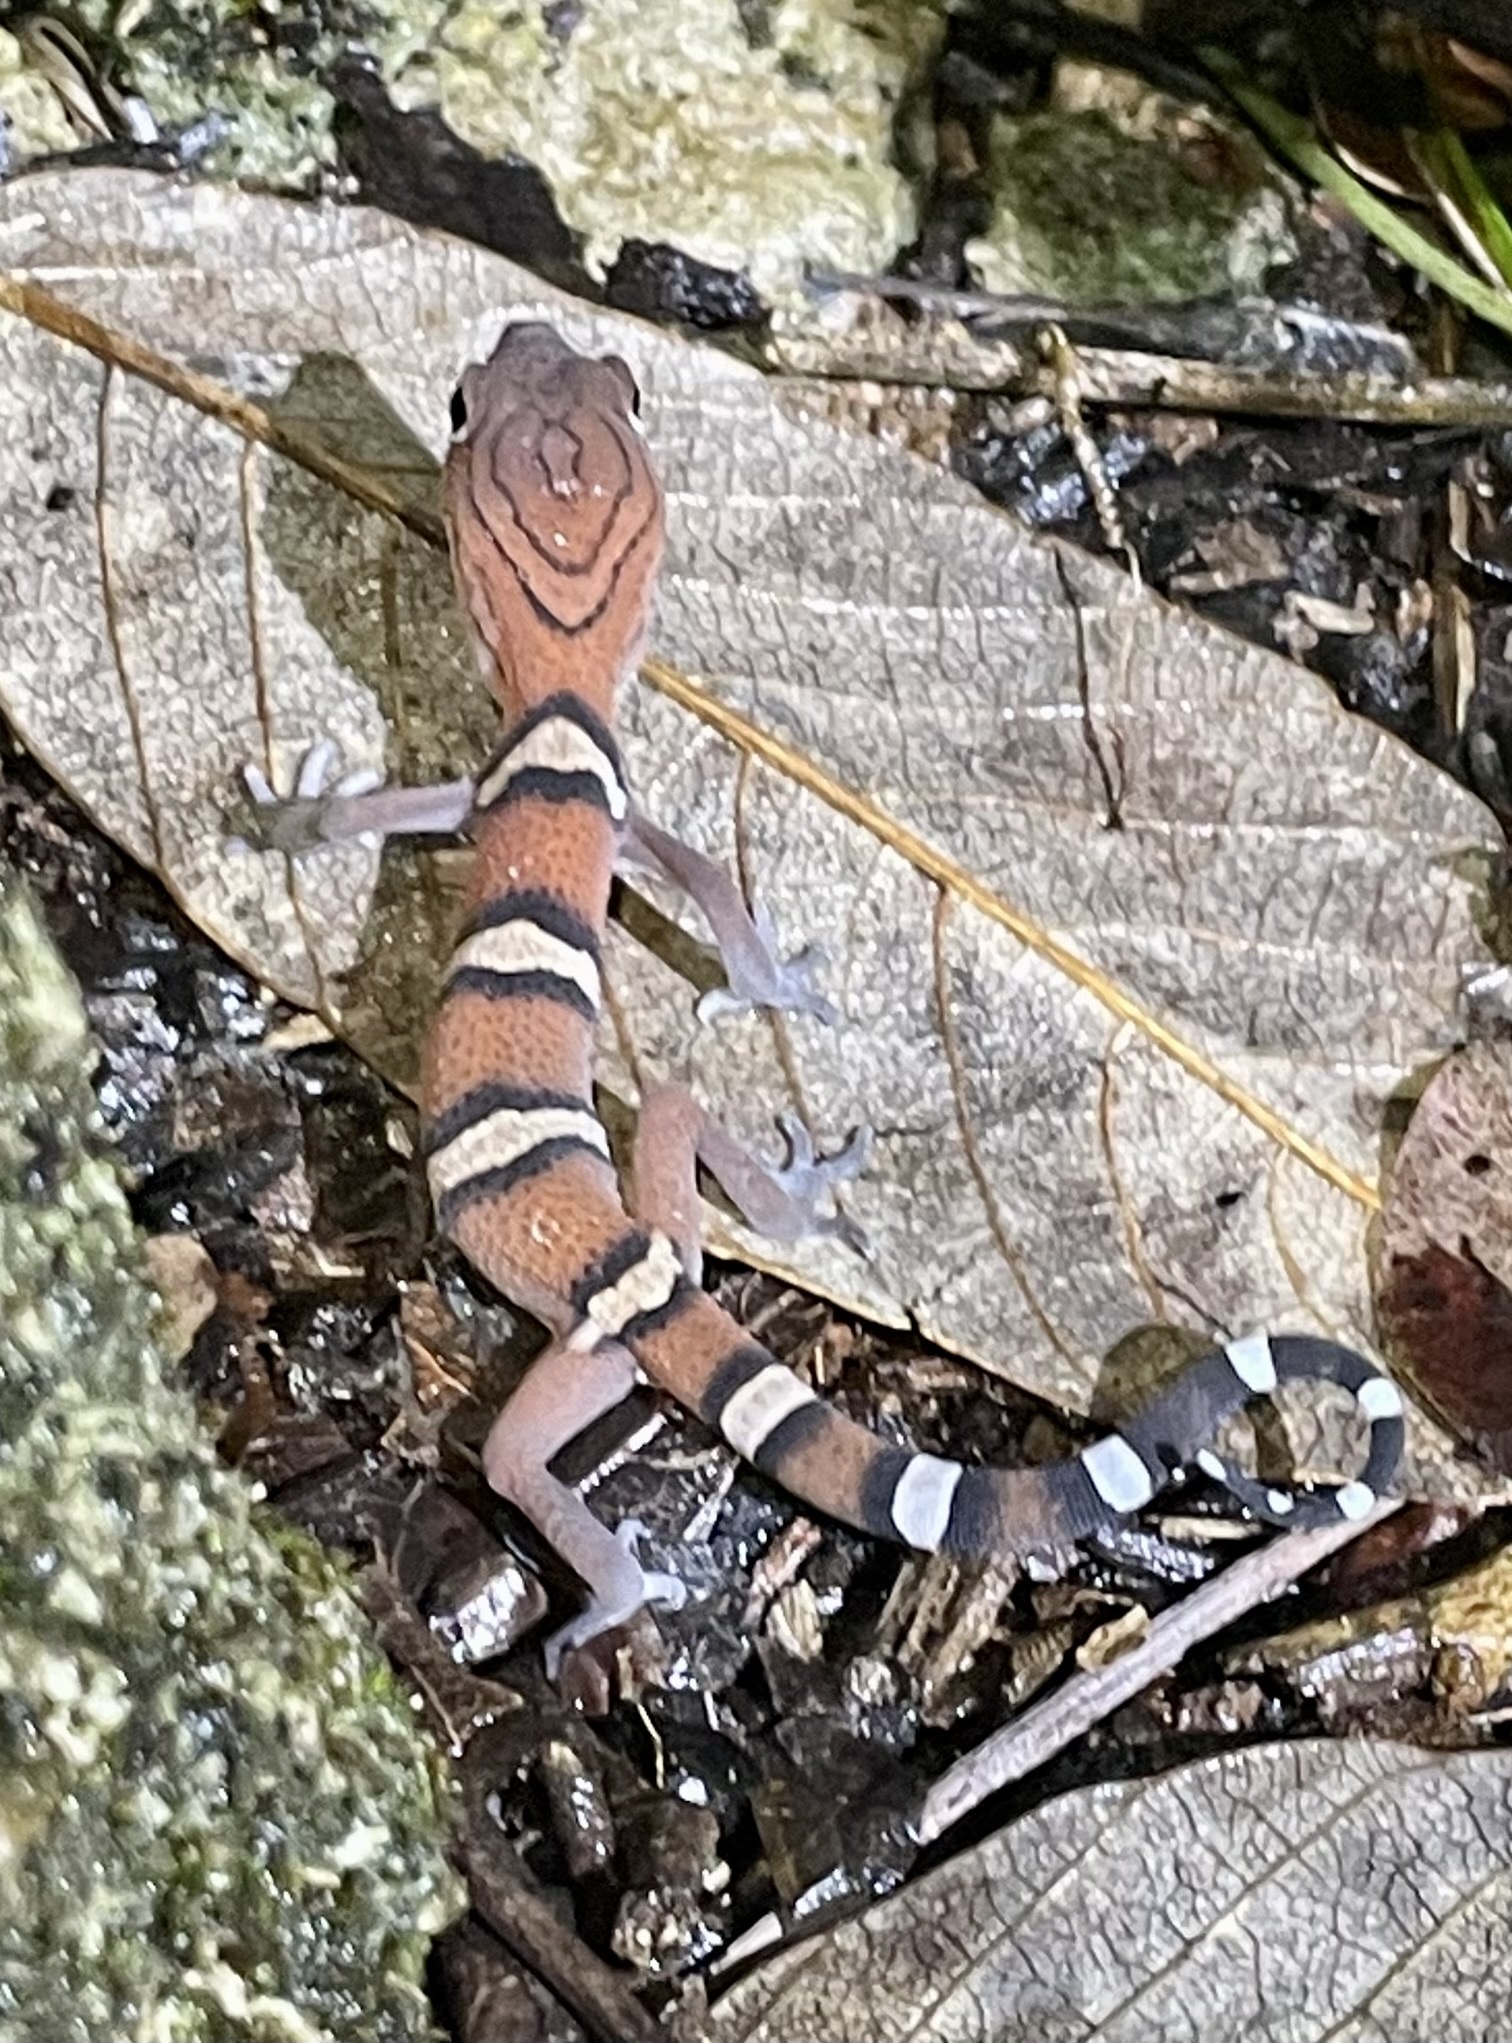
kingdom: Animalia
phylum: Chordata
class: Squamata
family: Eublepharidae
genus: Coleonyx
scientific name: Coleonyx elegans
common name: Yucatan banded gecko
